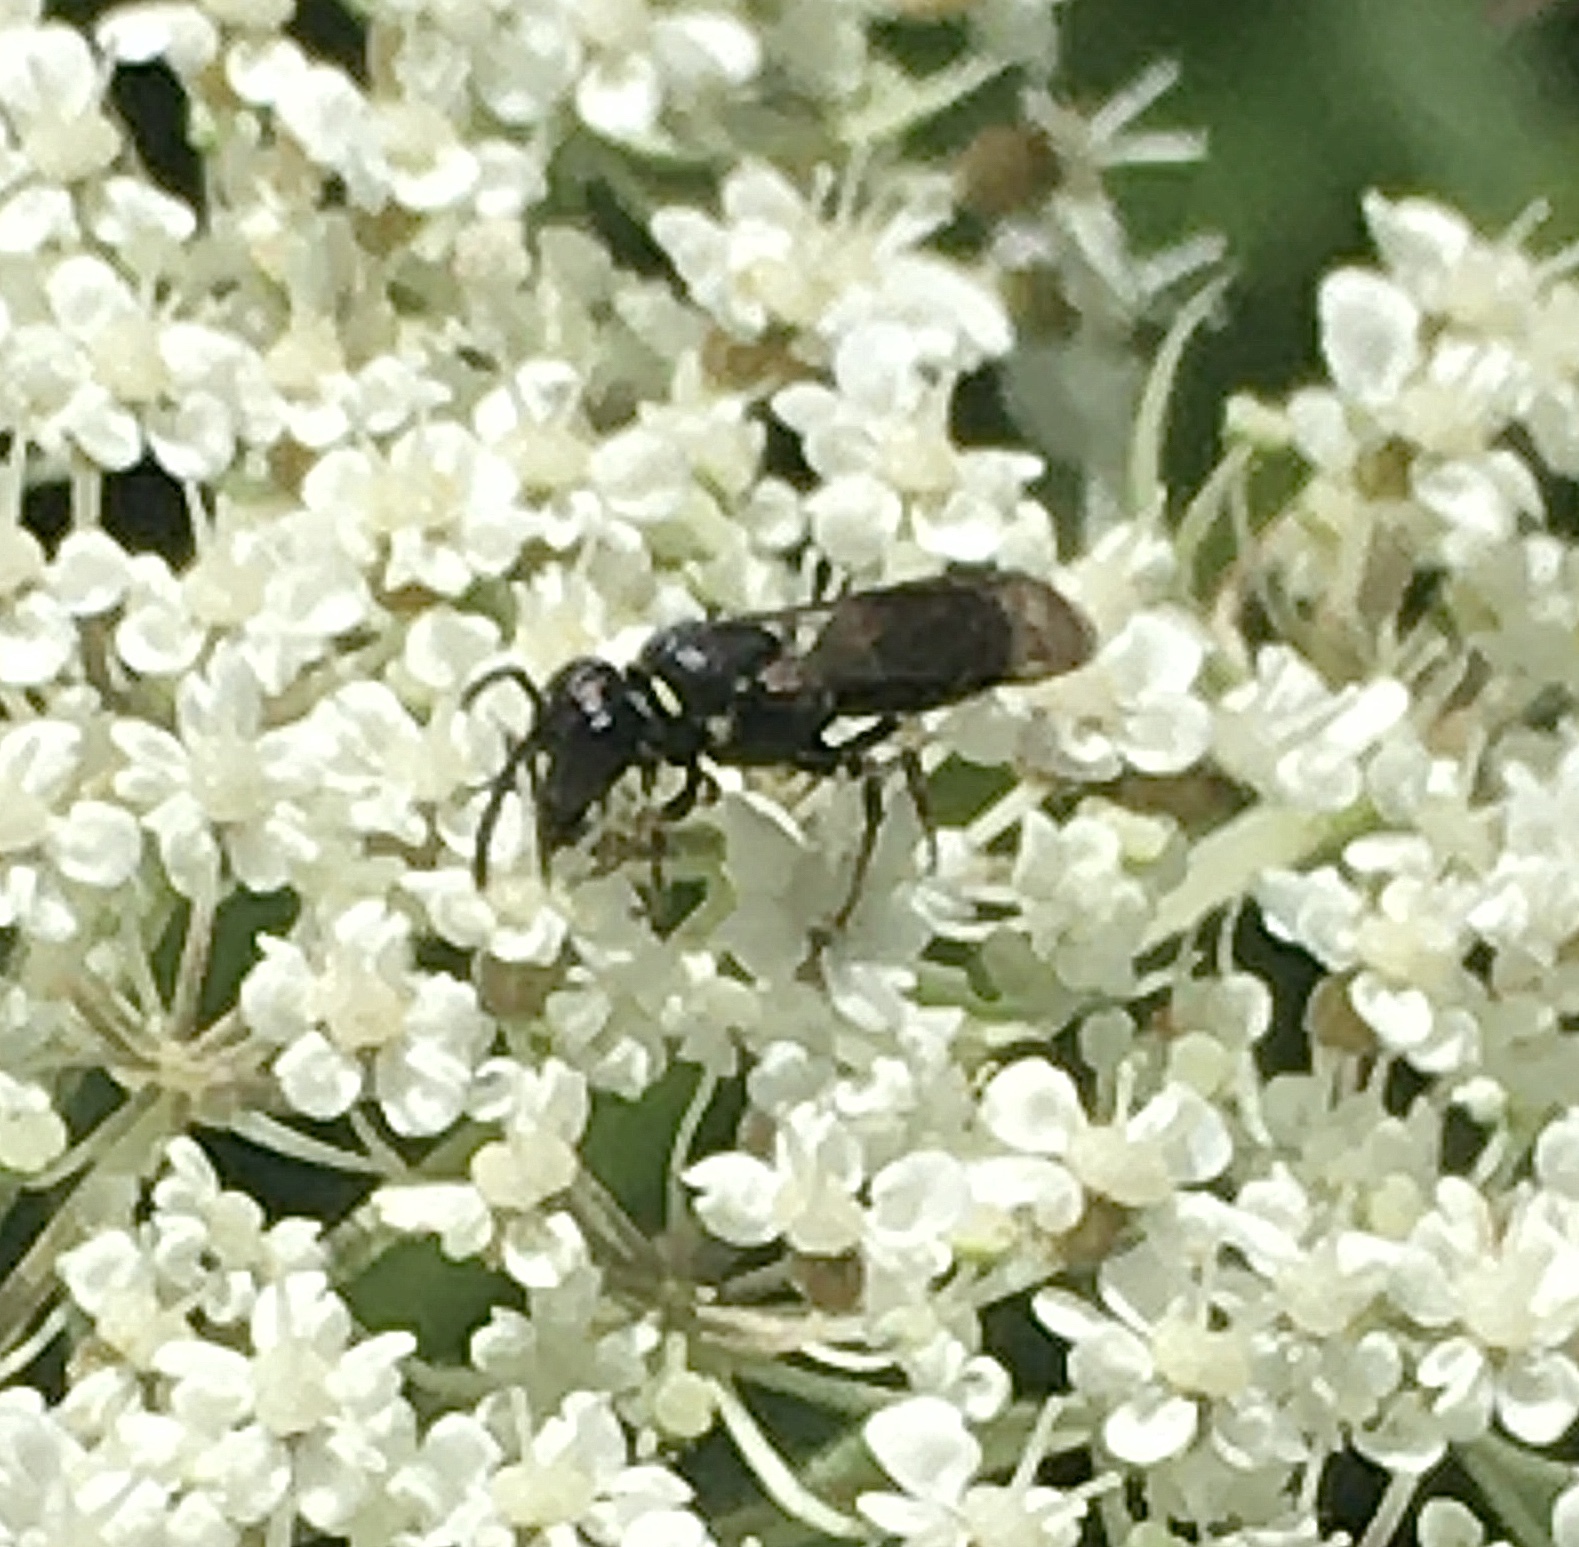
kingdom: Animalia
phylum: Arthropoda
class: Insecta
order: Hymenoptera
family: Colletidae
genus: Hylaeus
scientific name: Hylaeus
